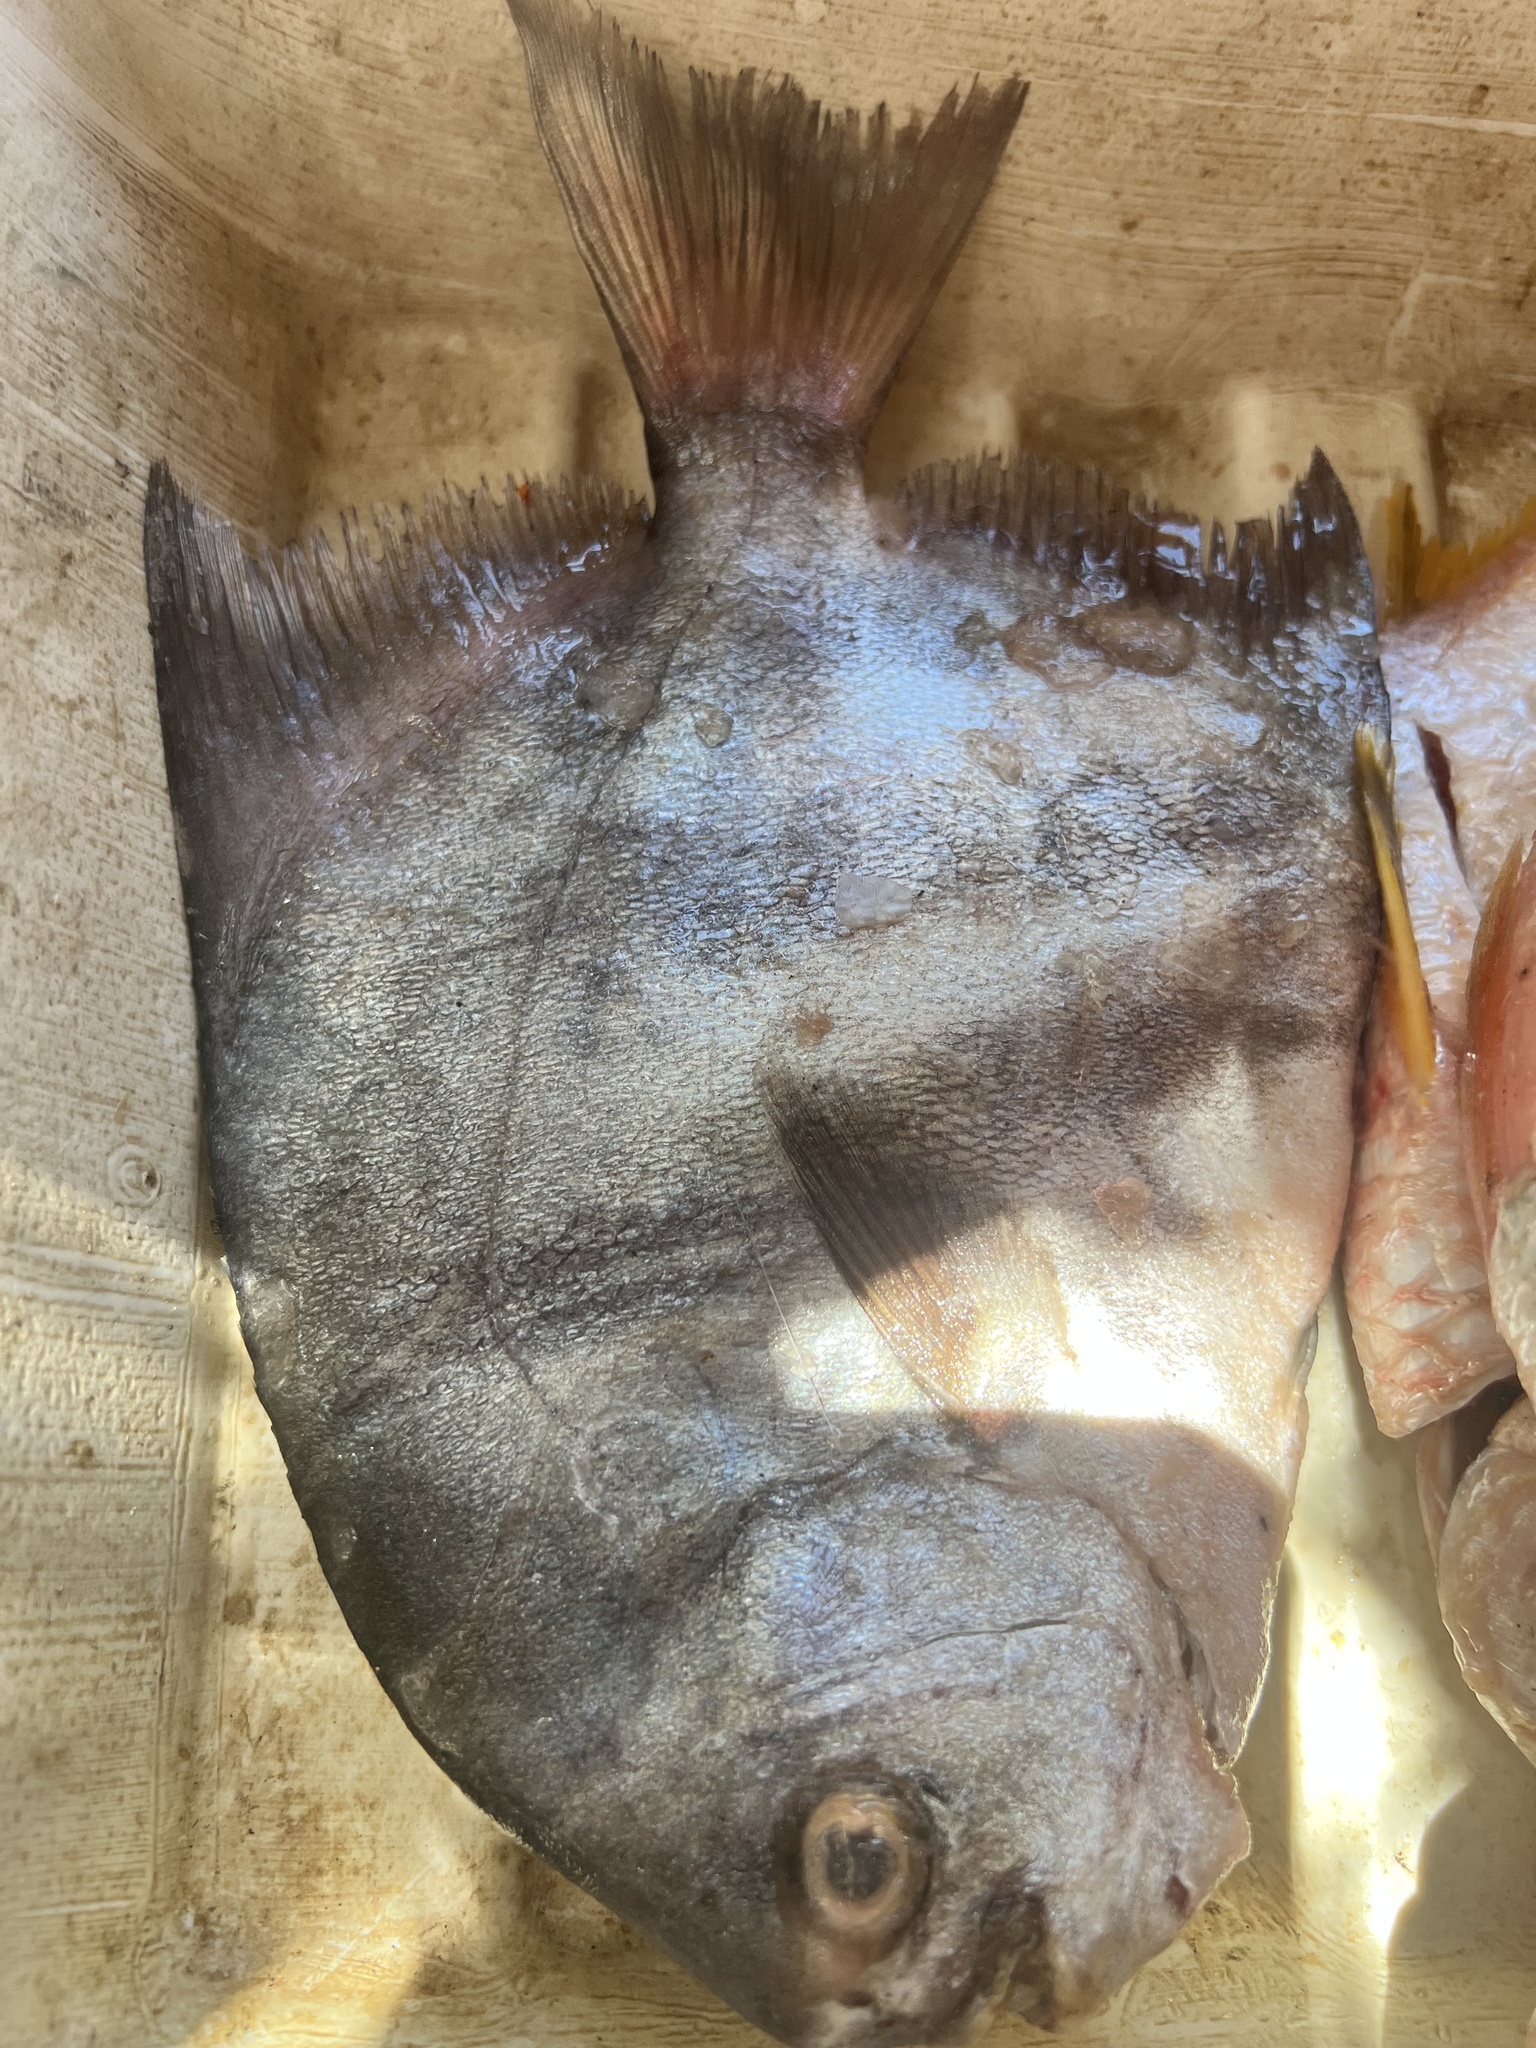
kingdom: Animalia
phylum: Chordata
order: Perciformes
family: Ephippidae
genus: Chaetodipterus
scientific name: Chaetodipterus zonatus
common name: Pacific spadefish
